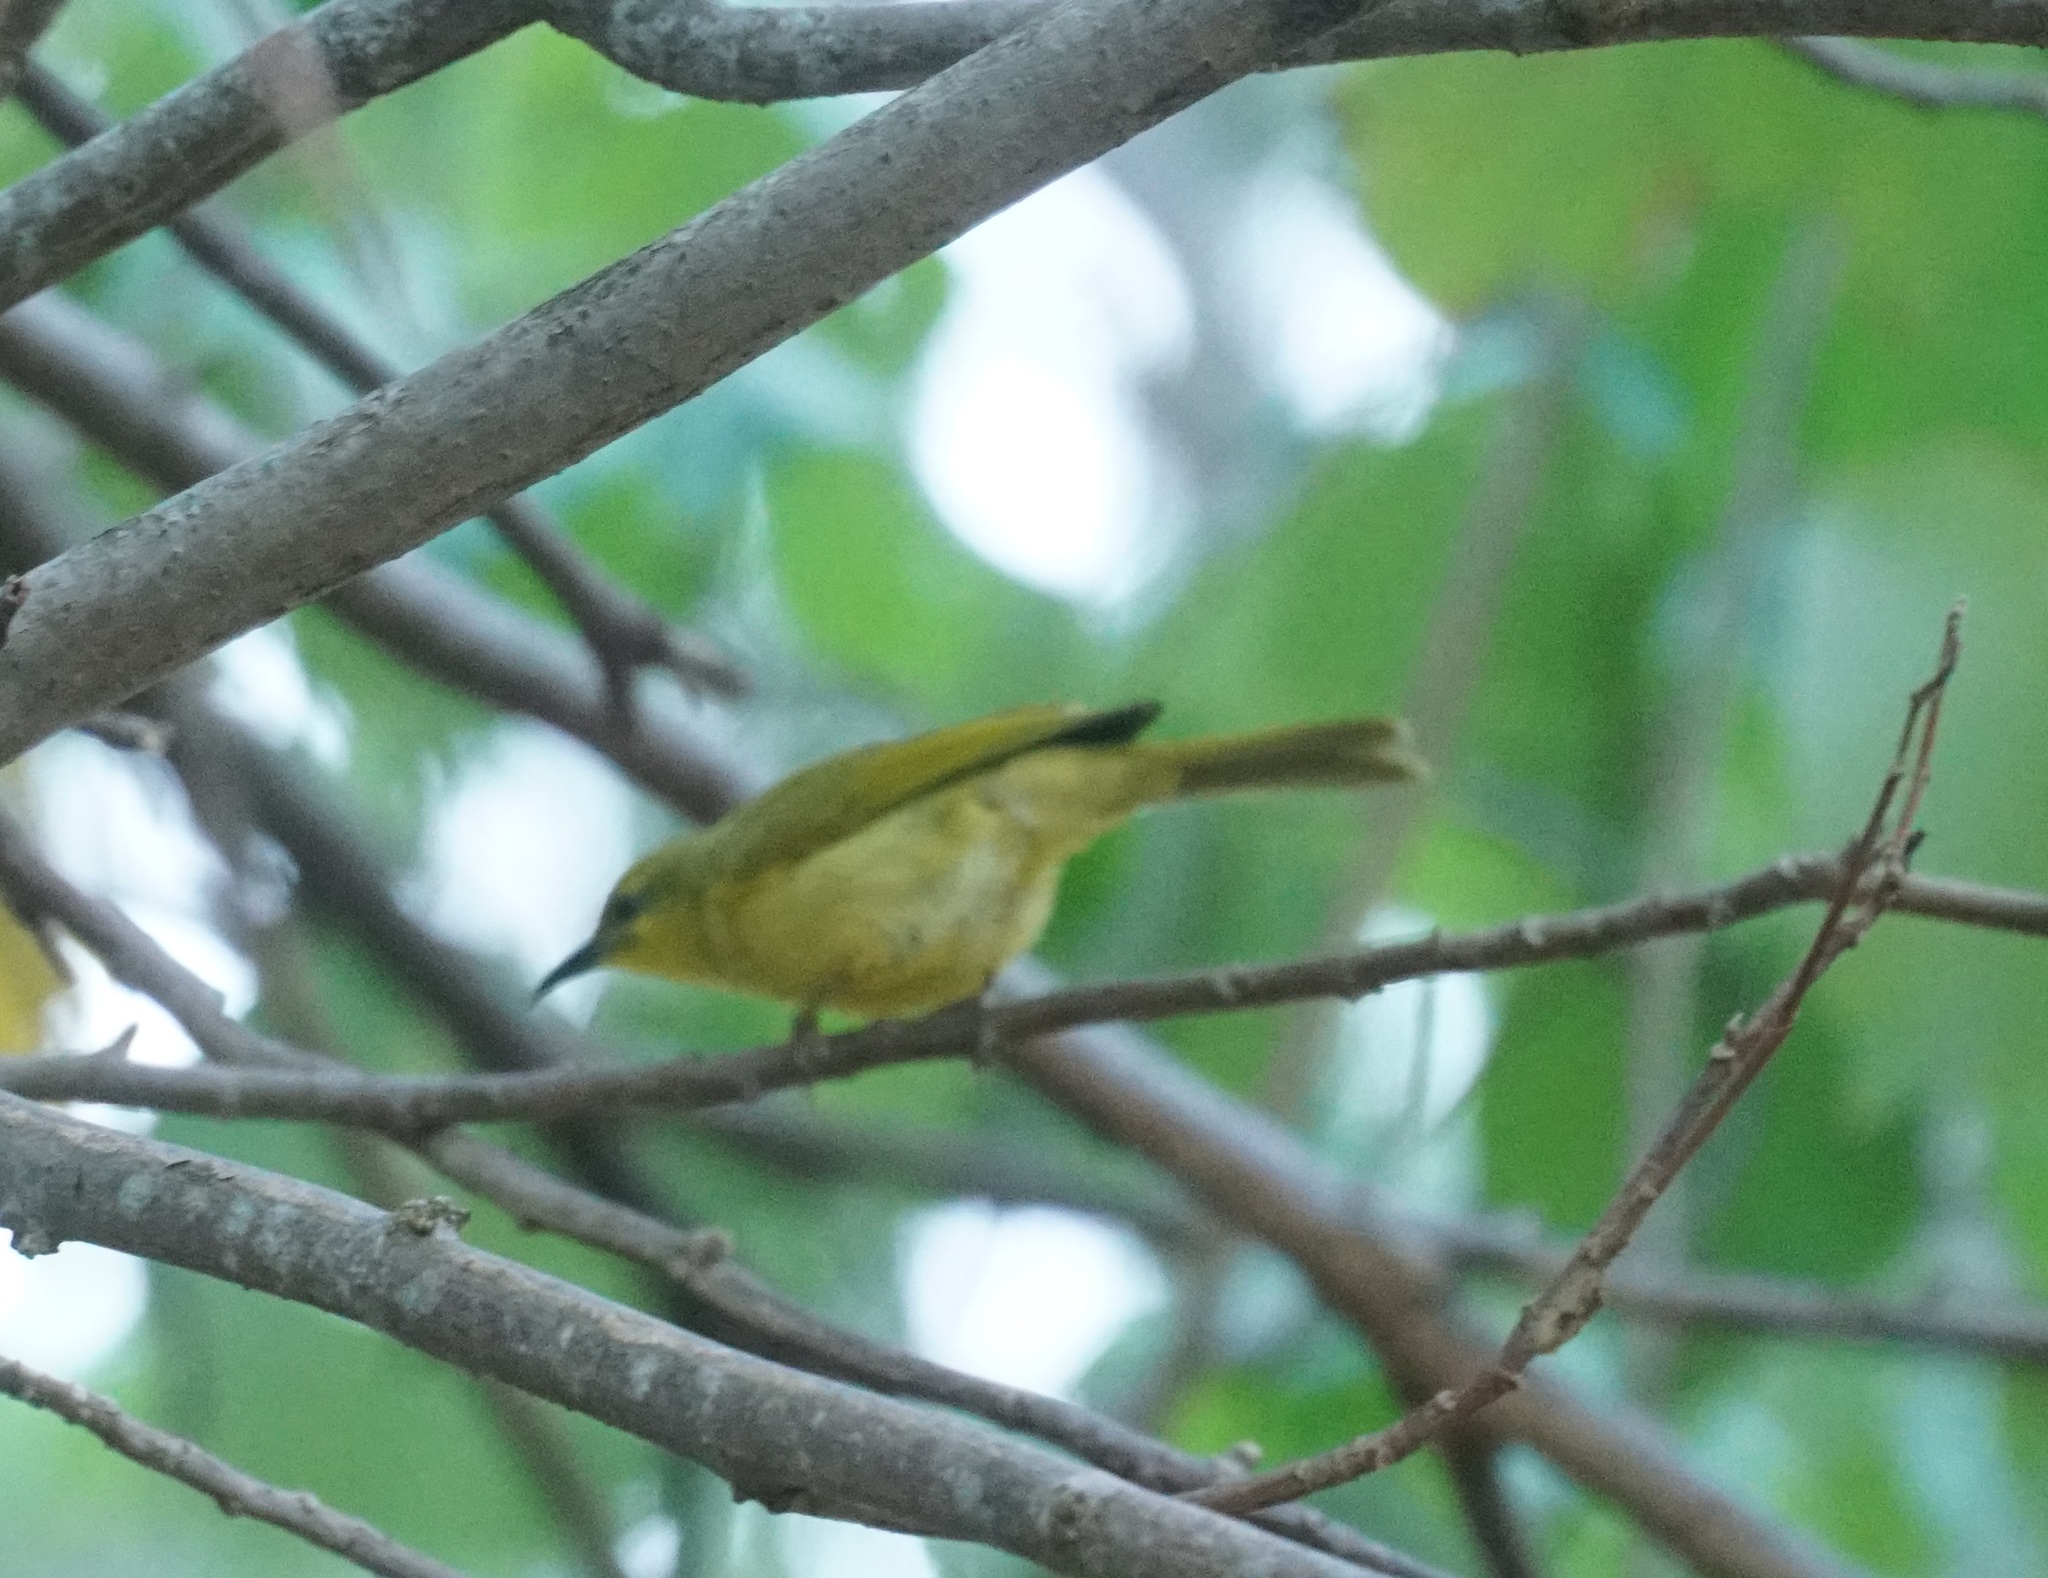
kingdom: Animalia
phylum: Chordata
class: Aves
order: Passeriformes
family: Meliphagidae
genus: Stomiopera
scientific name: Stomiopera flava
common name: Yellow honeyeater
